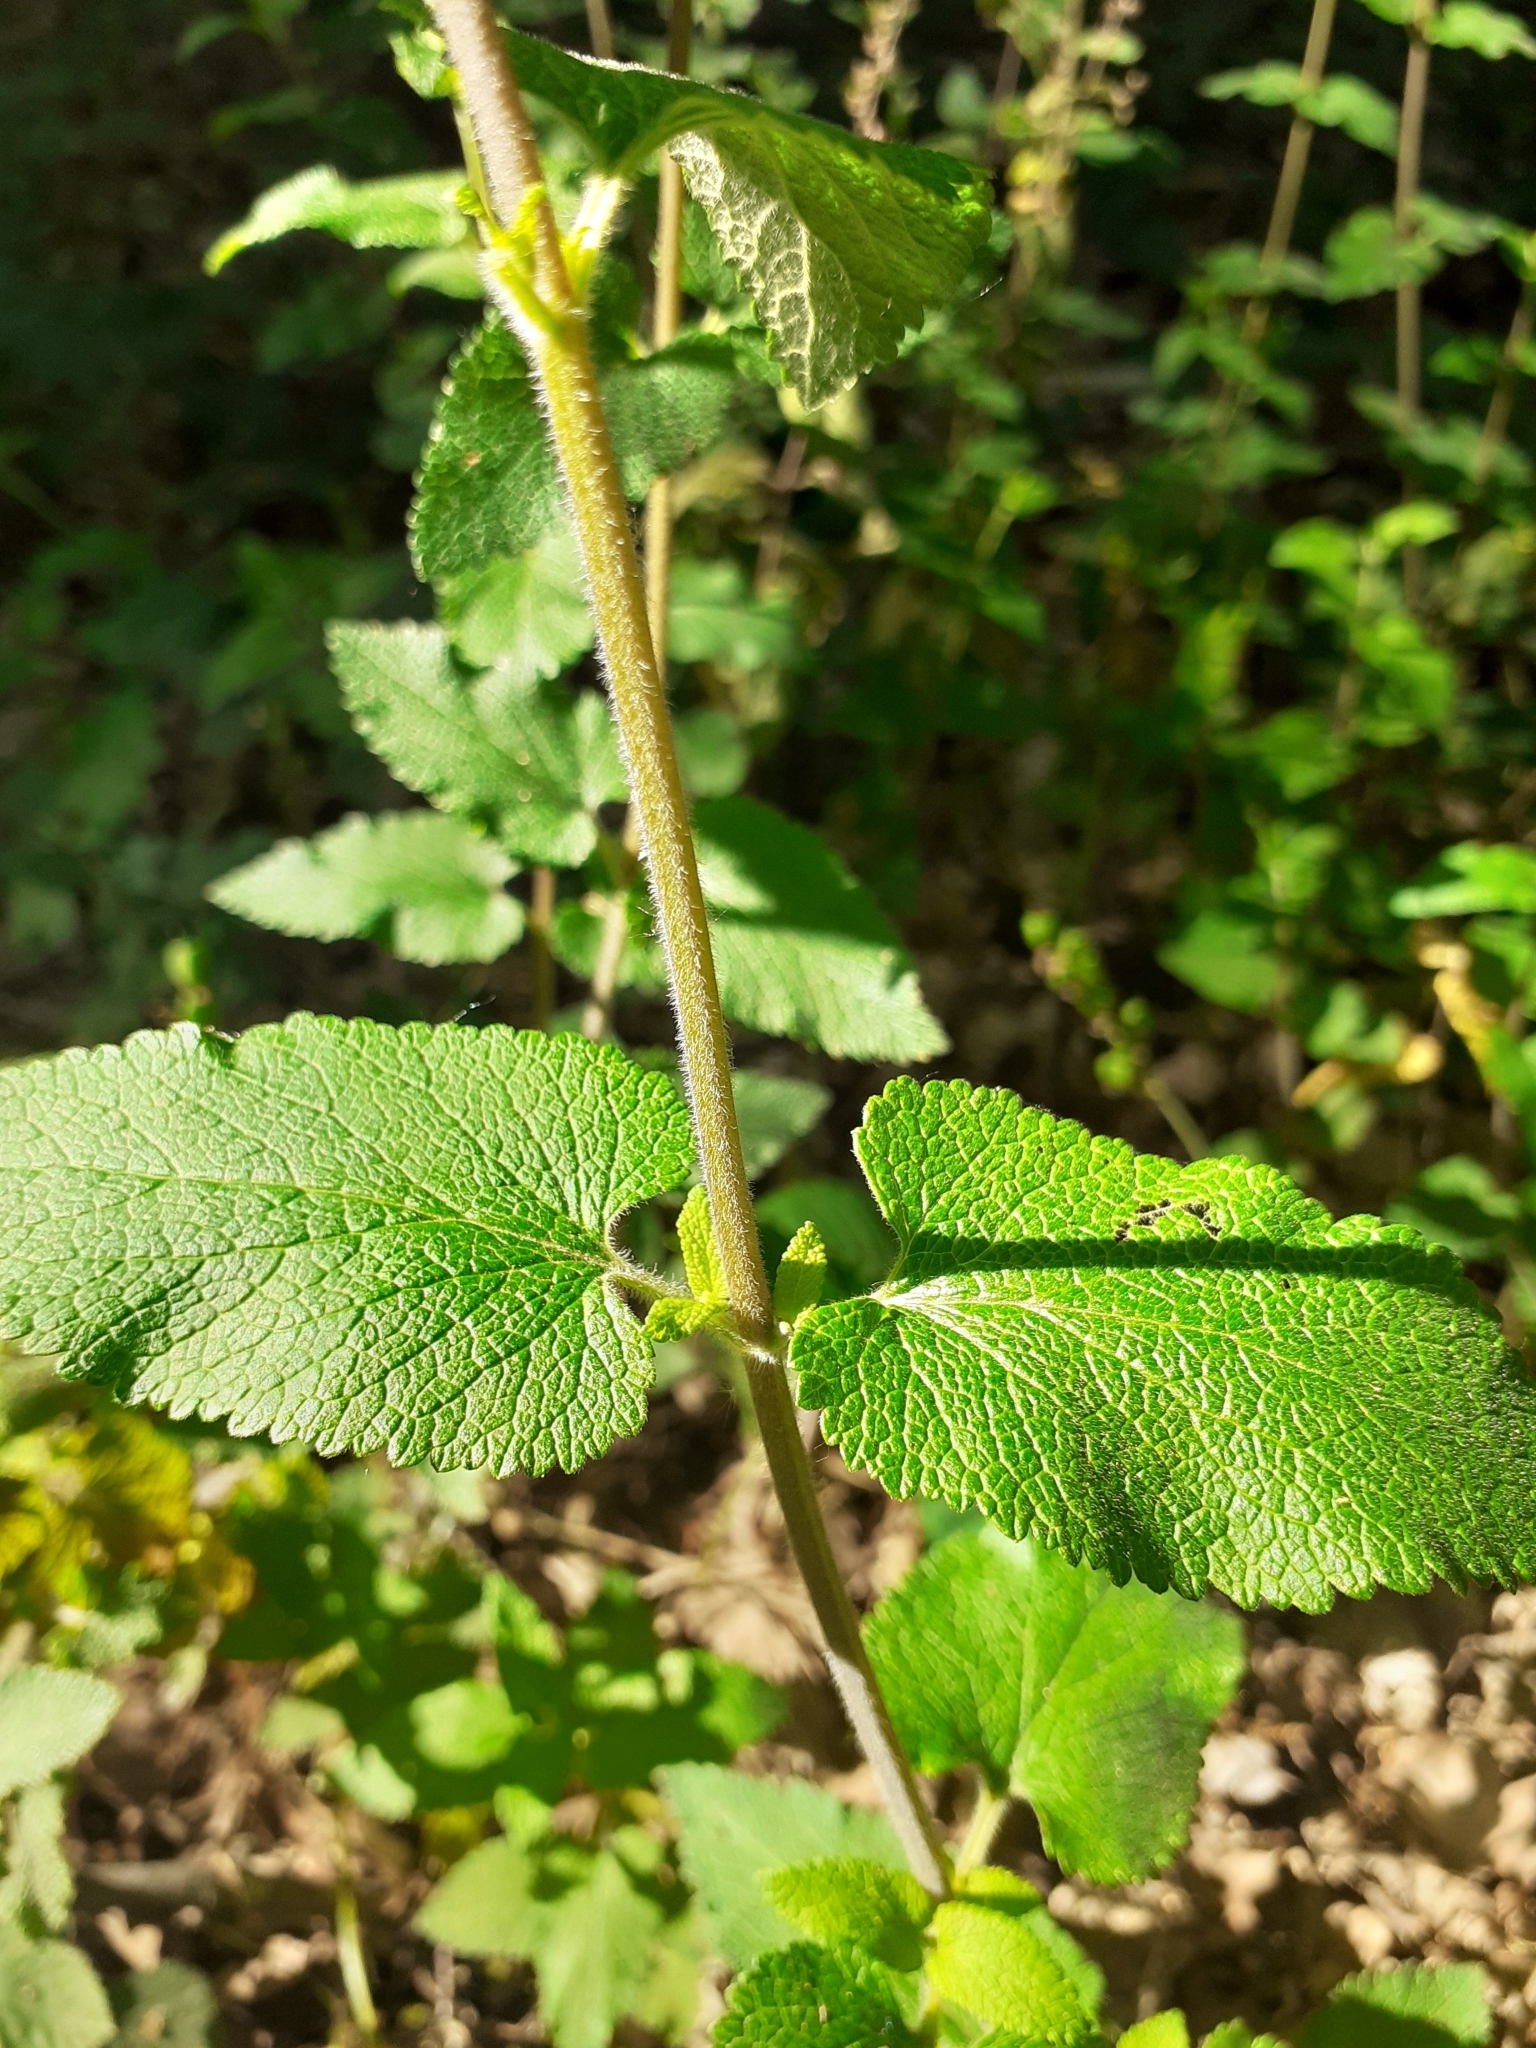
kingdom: Plantae
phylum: Tracheophyta
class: Magnoliopsida
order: Lamiales
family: Lamiaceae
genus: Teucrium
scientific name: Teucrium scorodonia
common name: Woodland germander
